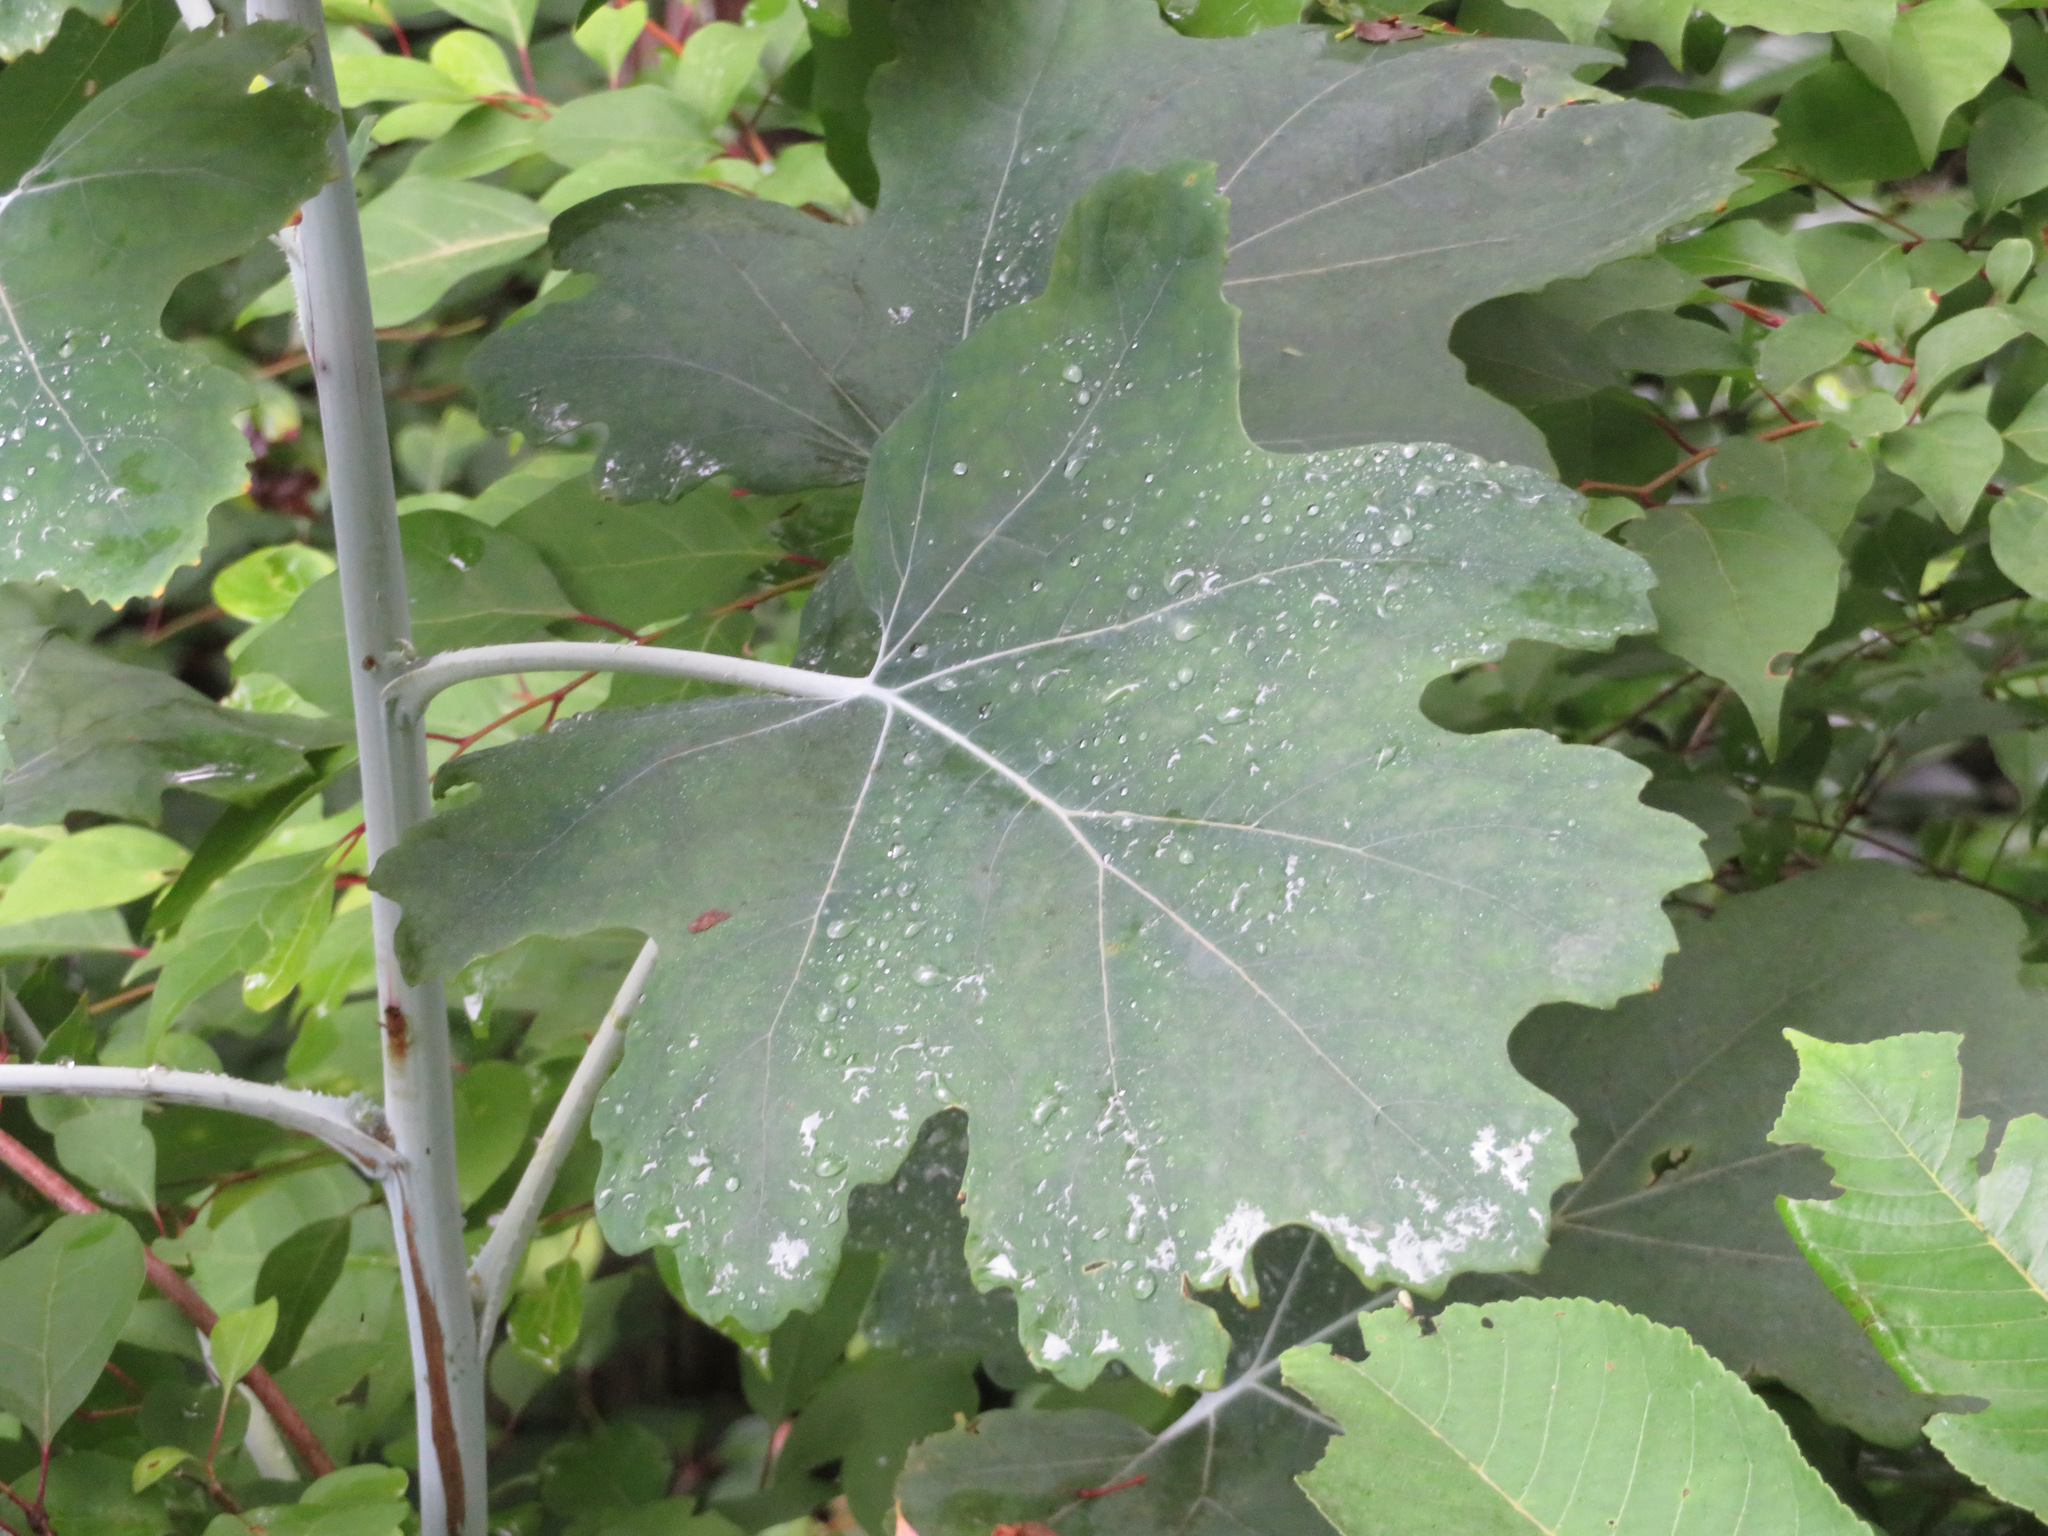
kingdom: Plantae
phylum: Tracheophyta
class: Magnoliopsida
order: Ranunculales
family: Papaveraceae
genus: Macleaya
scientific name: Macleaya cordata
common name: Plume poppy
